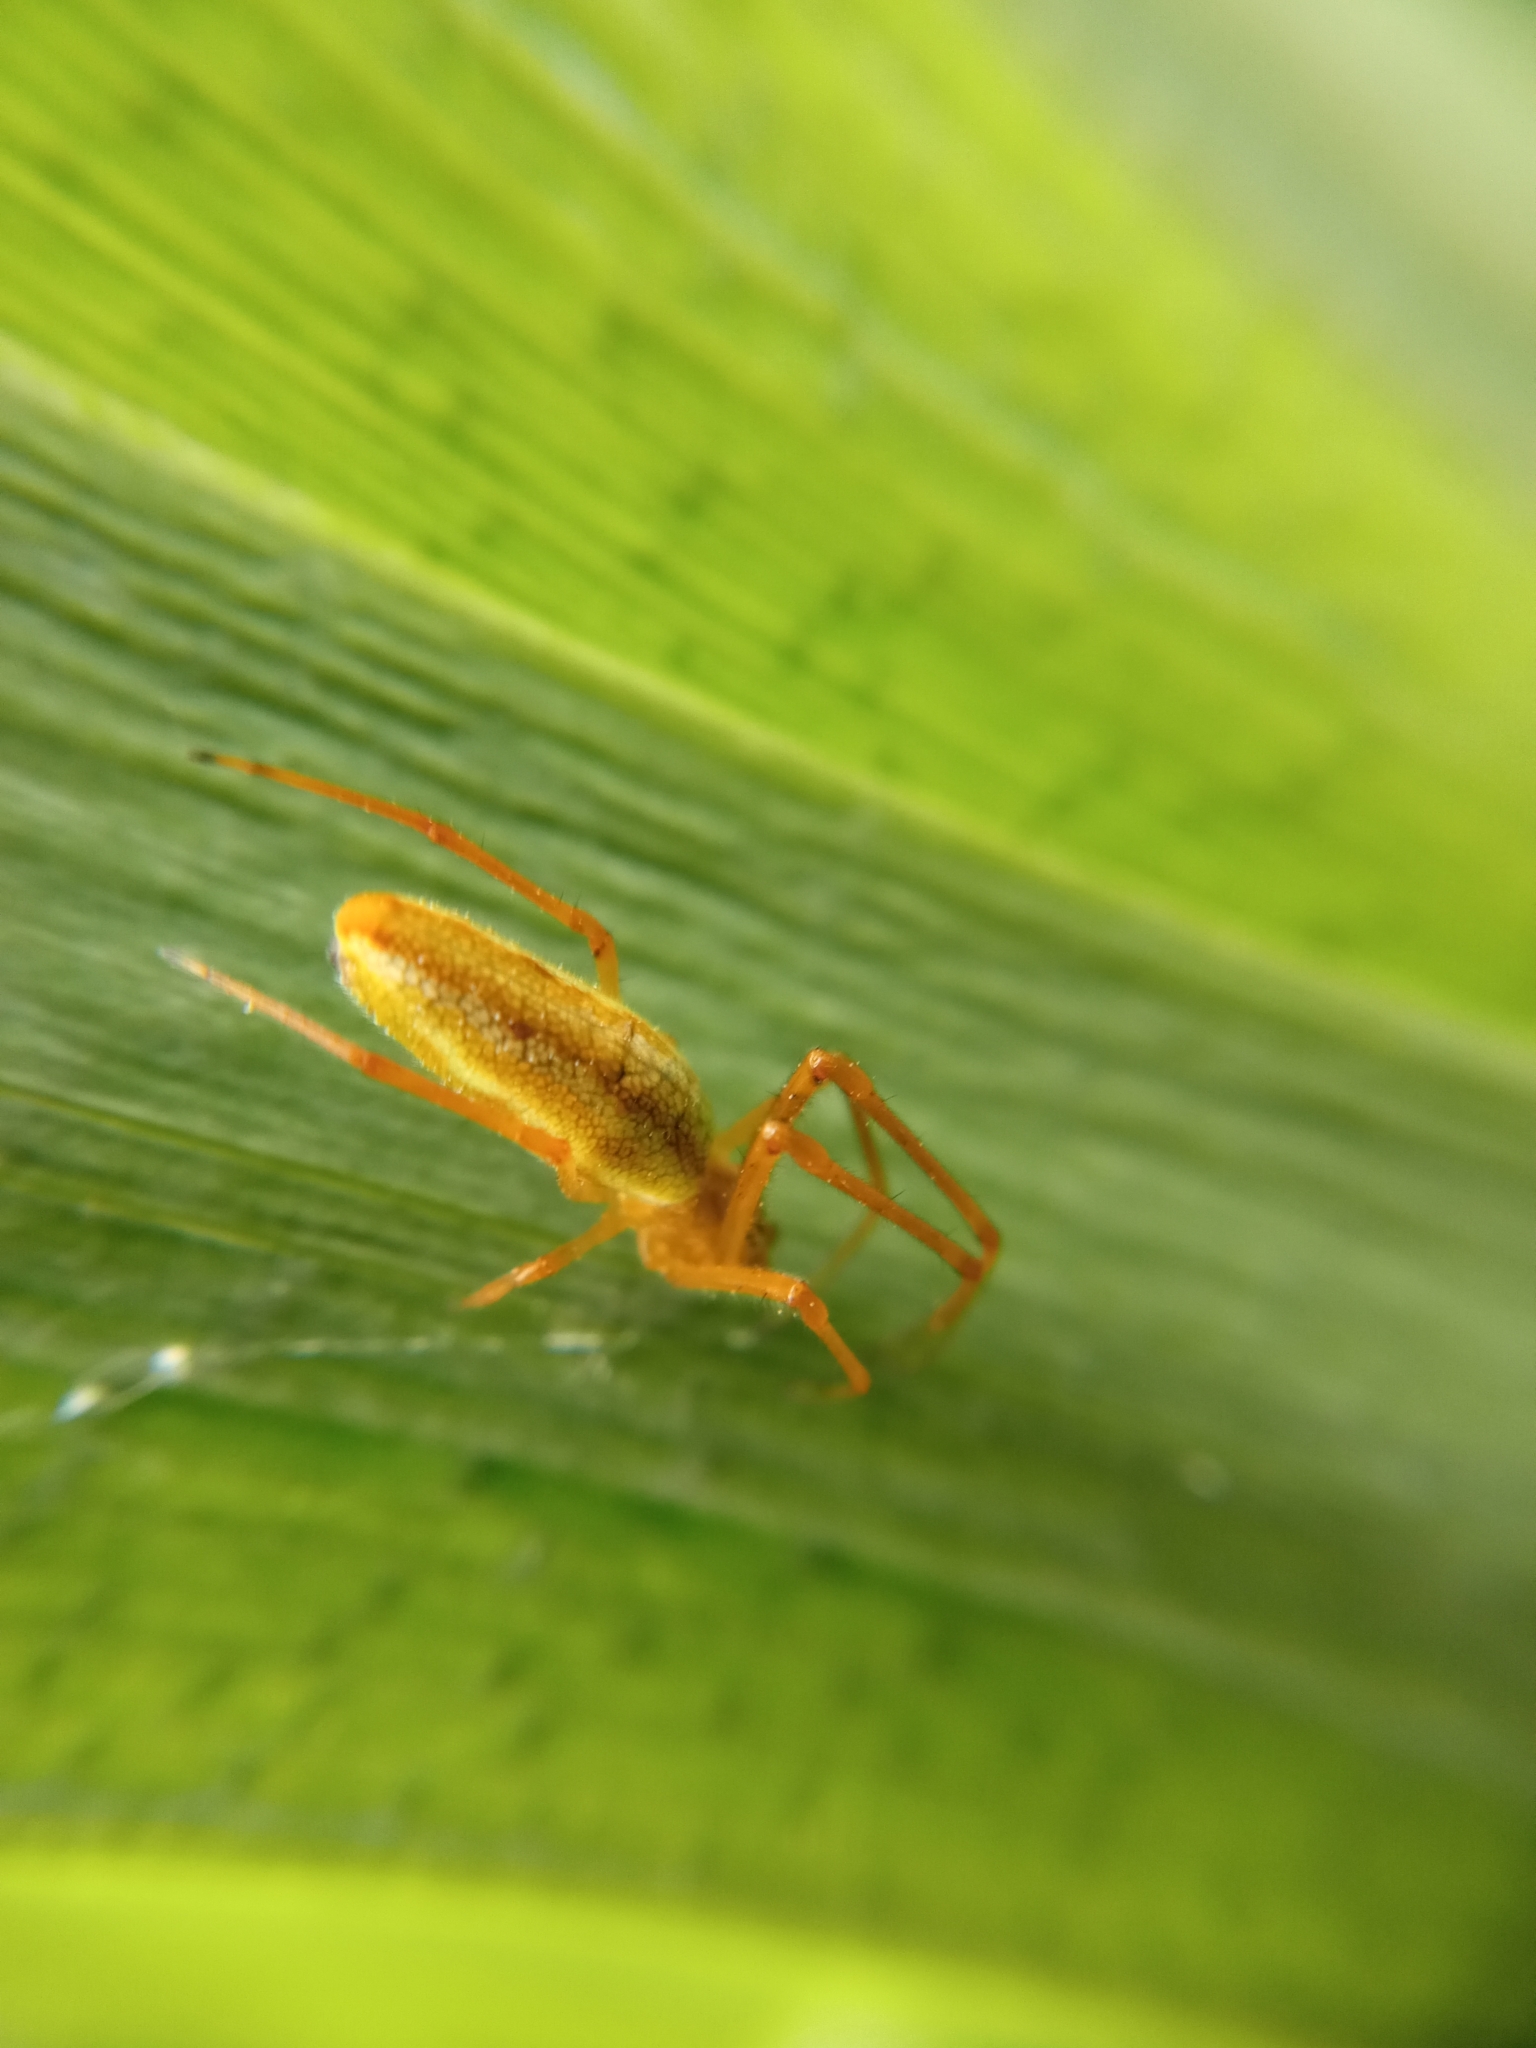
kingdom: Animalia
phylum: Arthropoda
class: Arachnida
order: Araneae
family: Tetragnathidae
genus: Tetragnatha
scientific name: Tetragnatha
